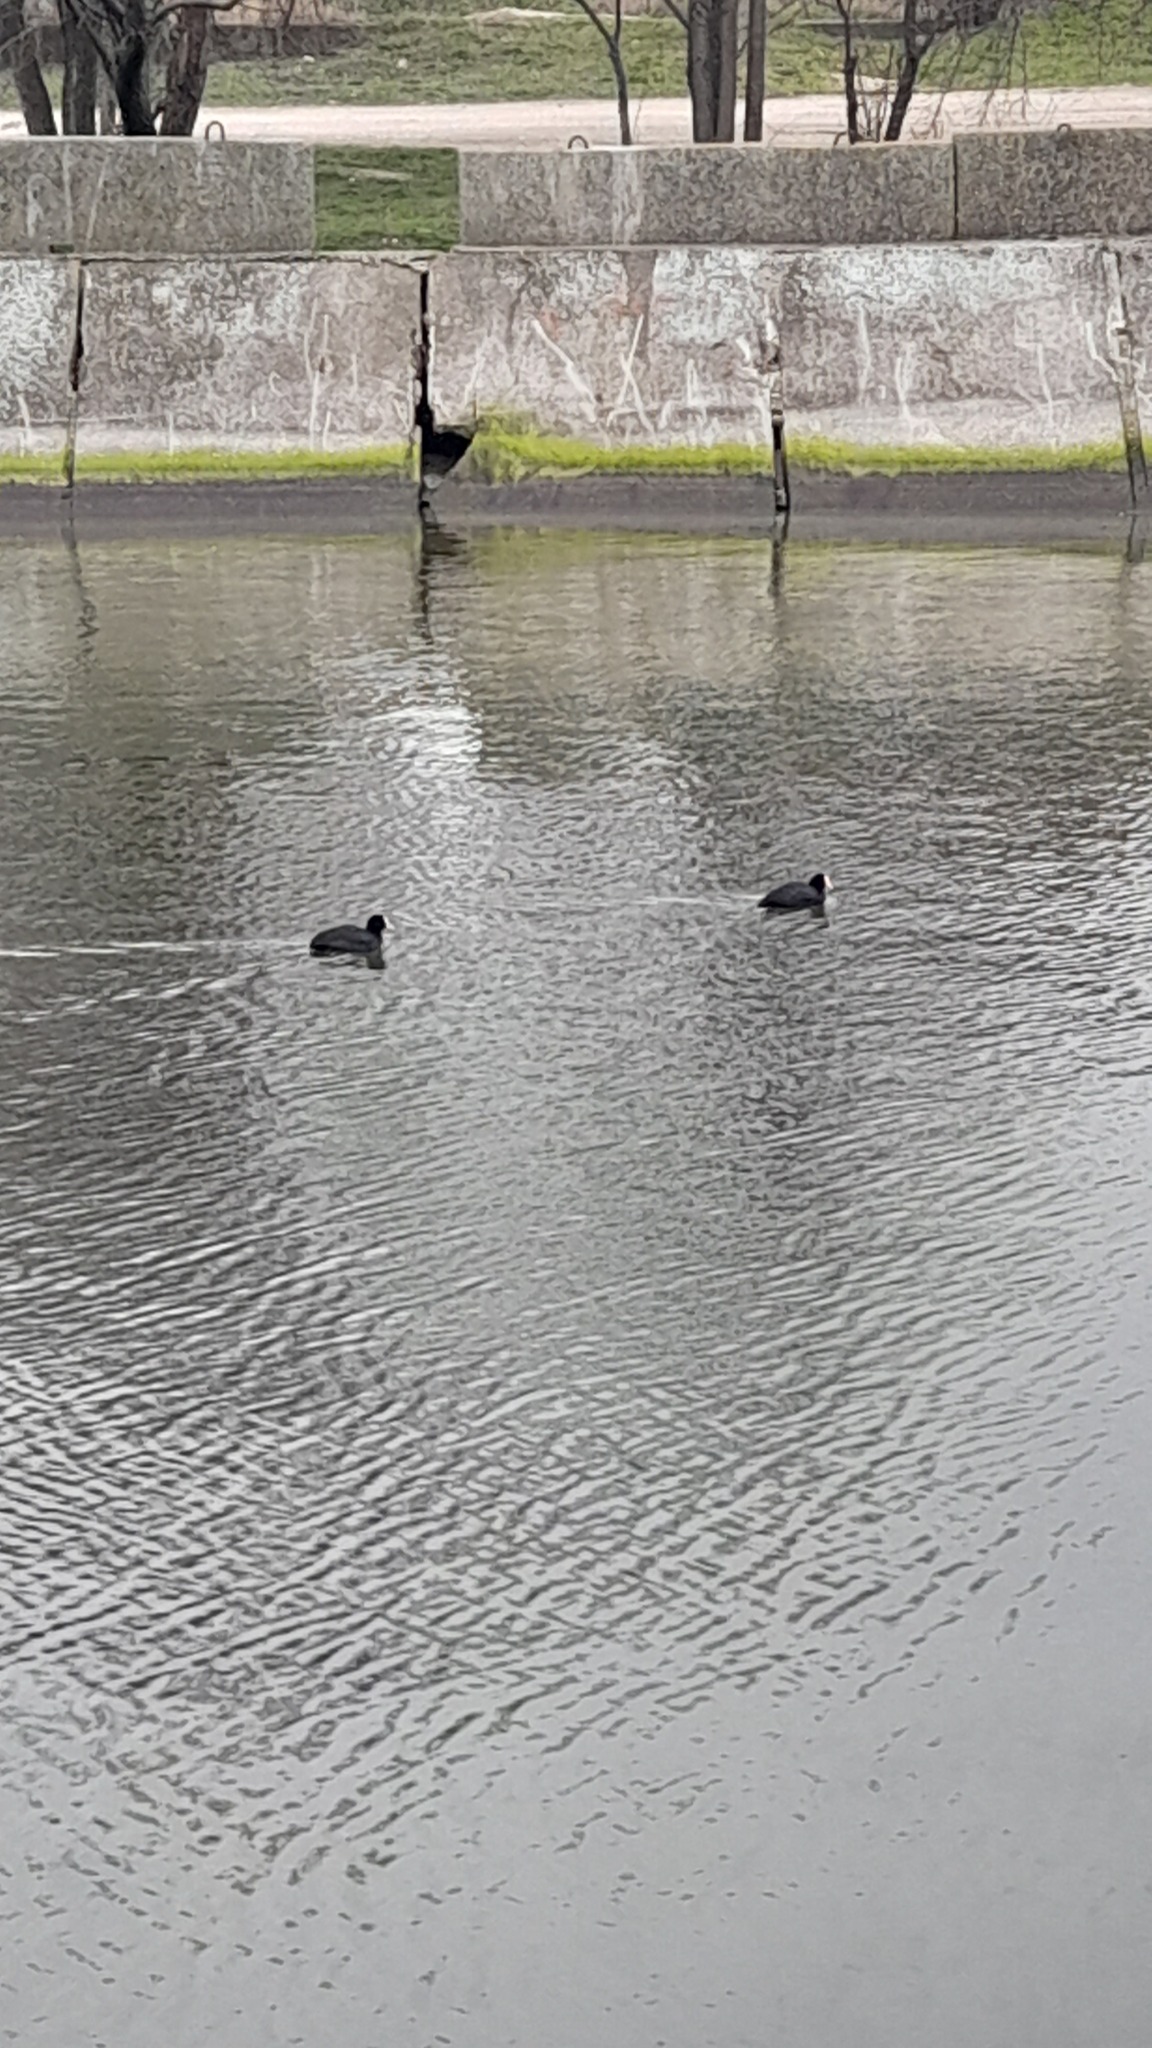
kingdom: Animalia
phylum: Chordata
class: Aves
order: Gruiformes
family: Rallidae
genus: Fulica
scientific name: Fulica atra
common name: Eurasian coot
